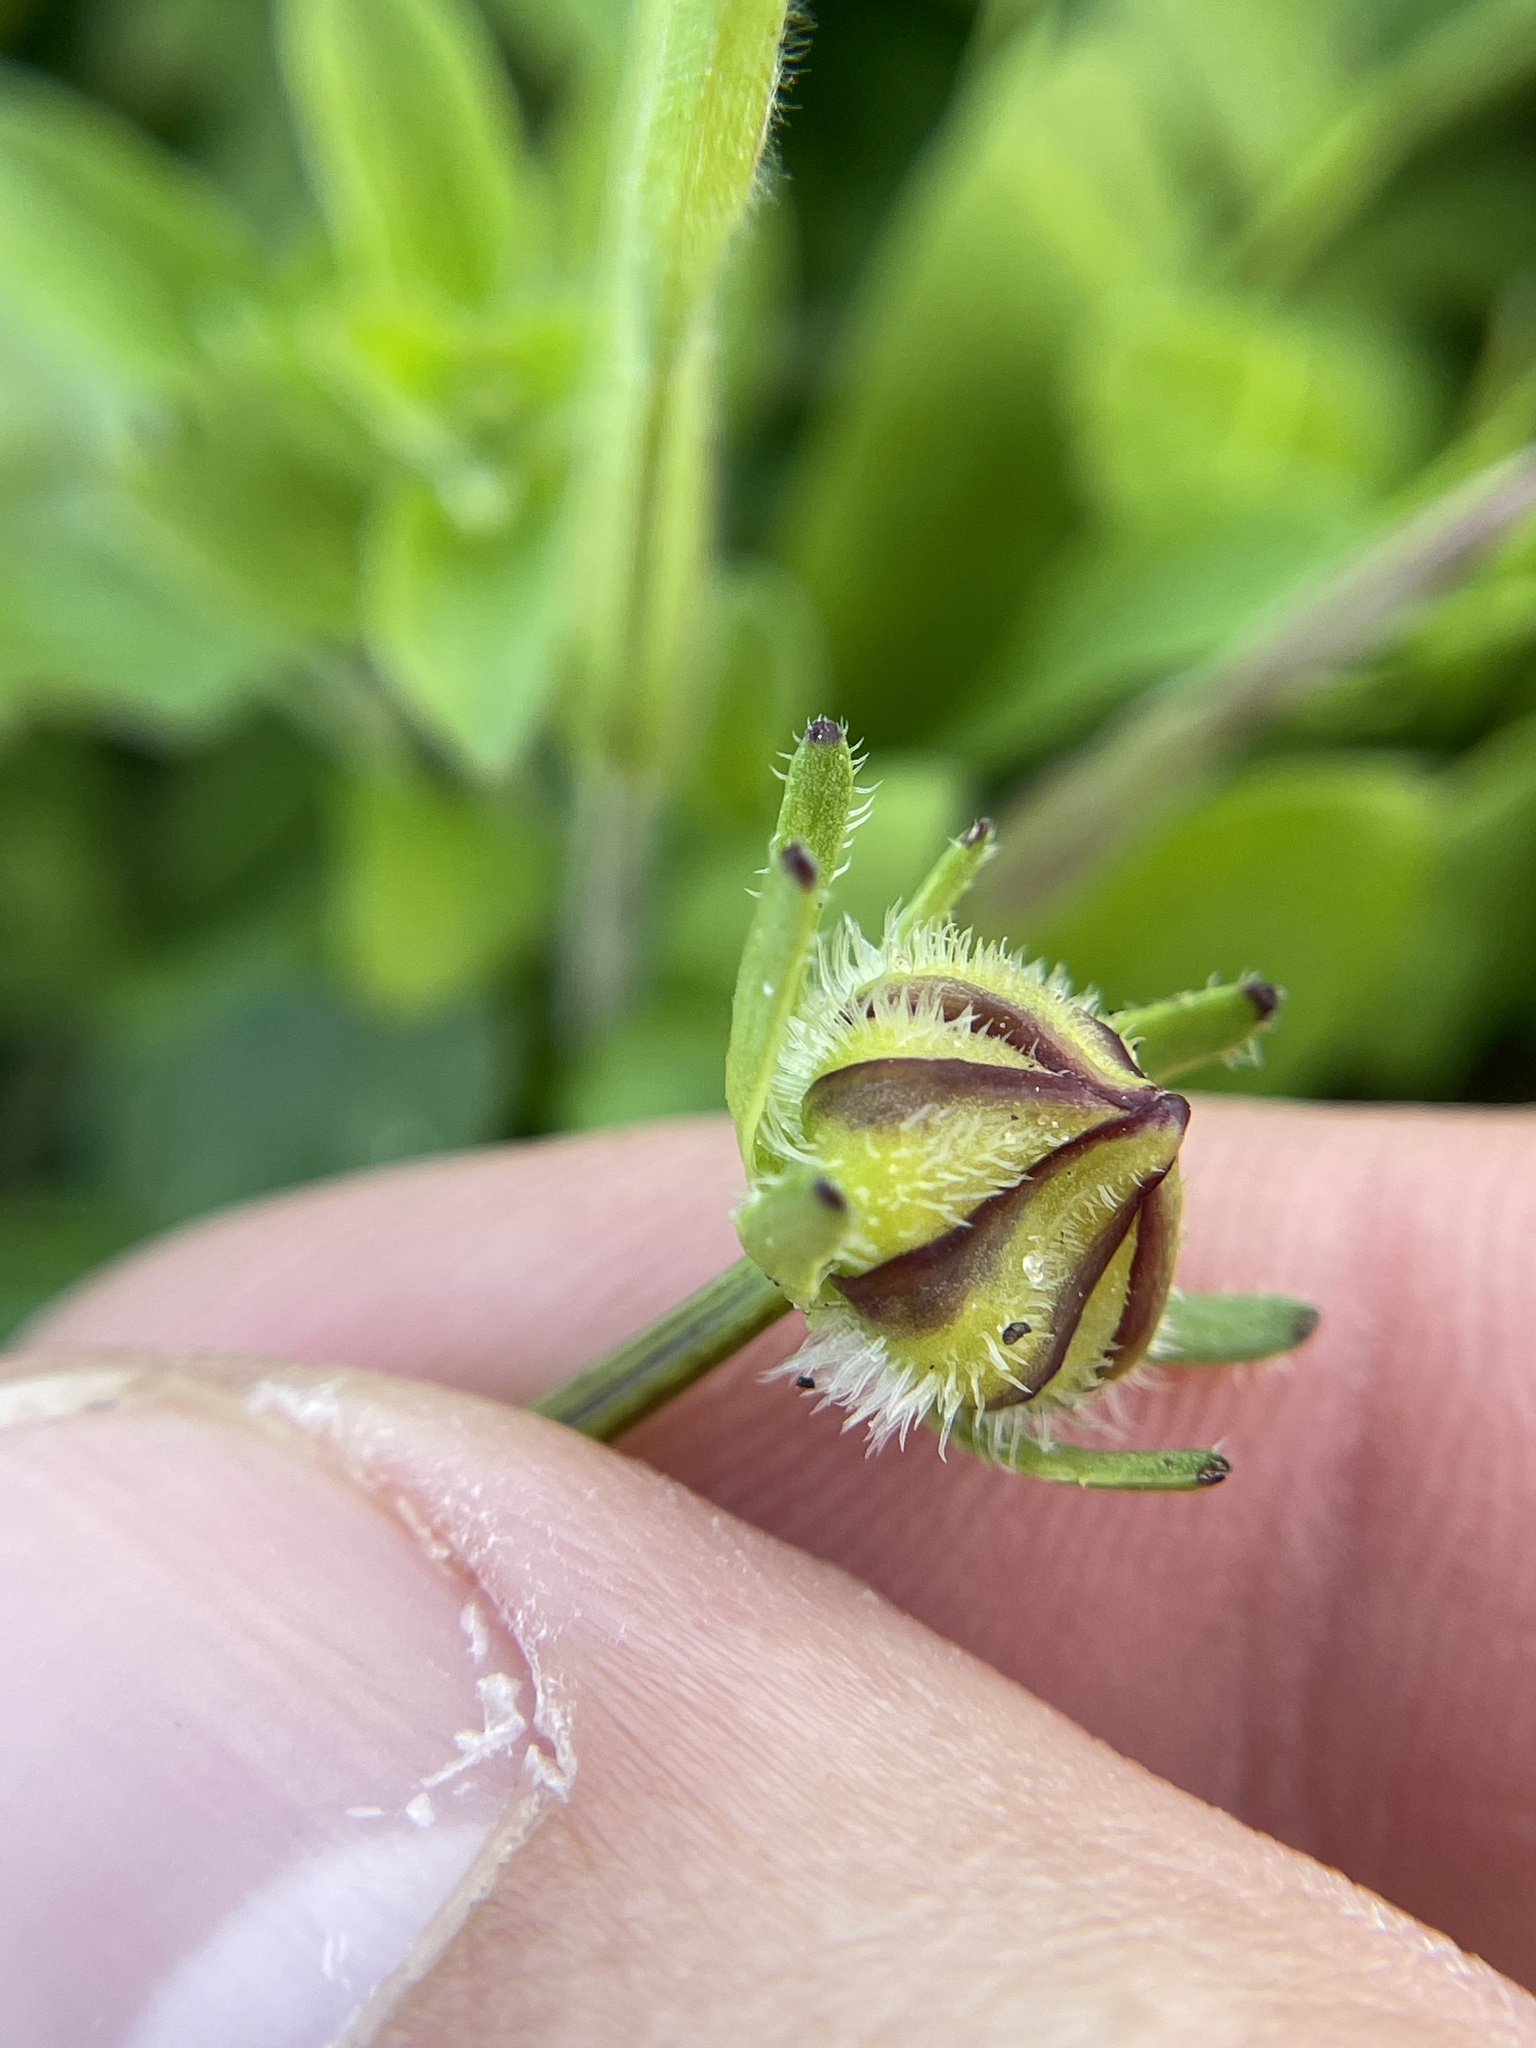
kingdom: Plantae
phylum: Tracheophyta
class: Magnoliopsida
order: Asterales
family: Asteraceae
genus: Coreopsis
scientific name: Coreopsis nuecensis
